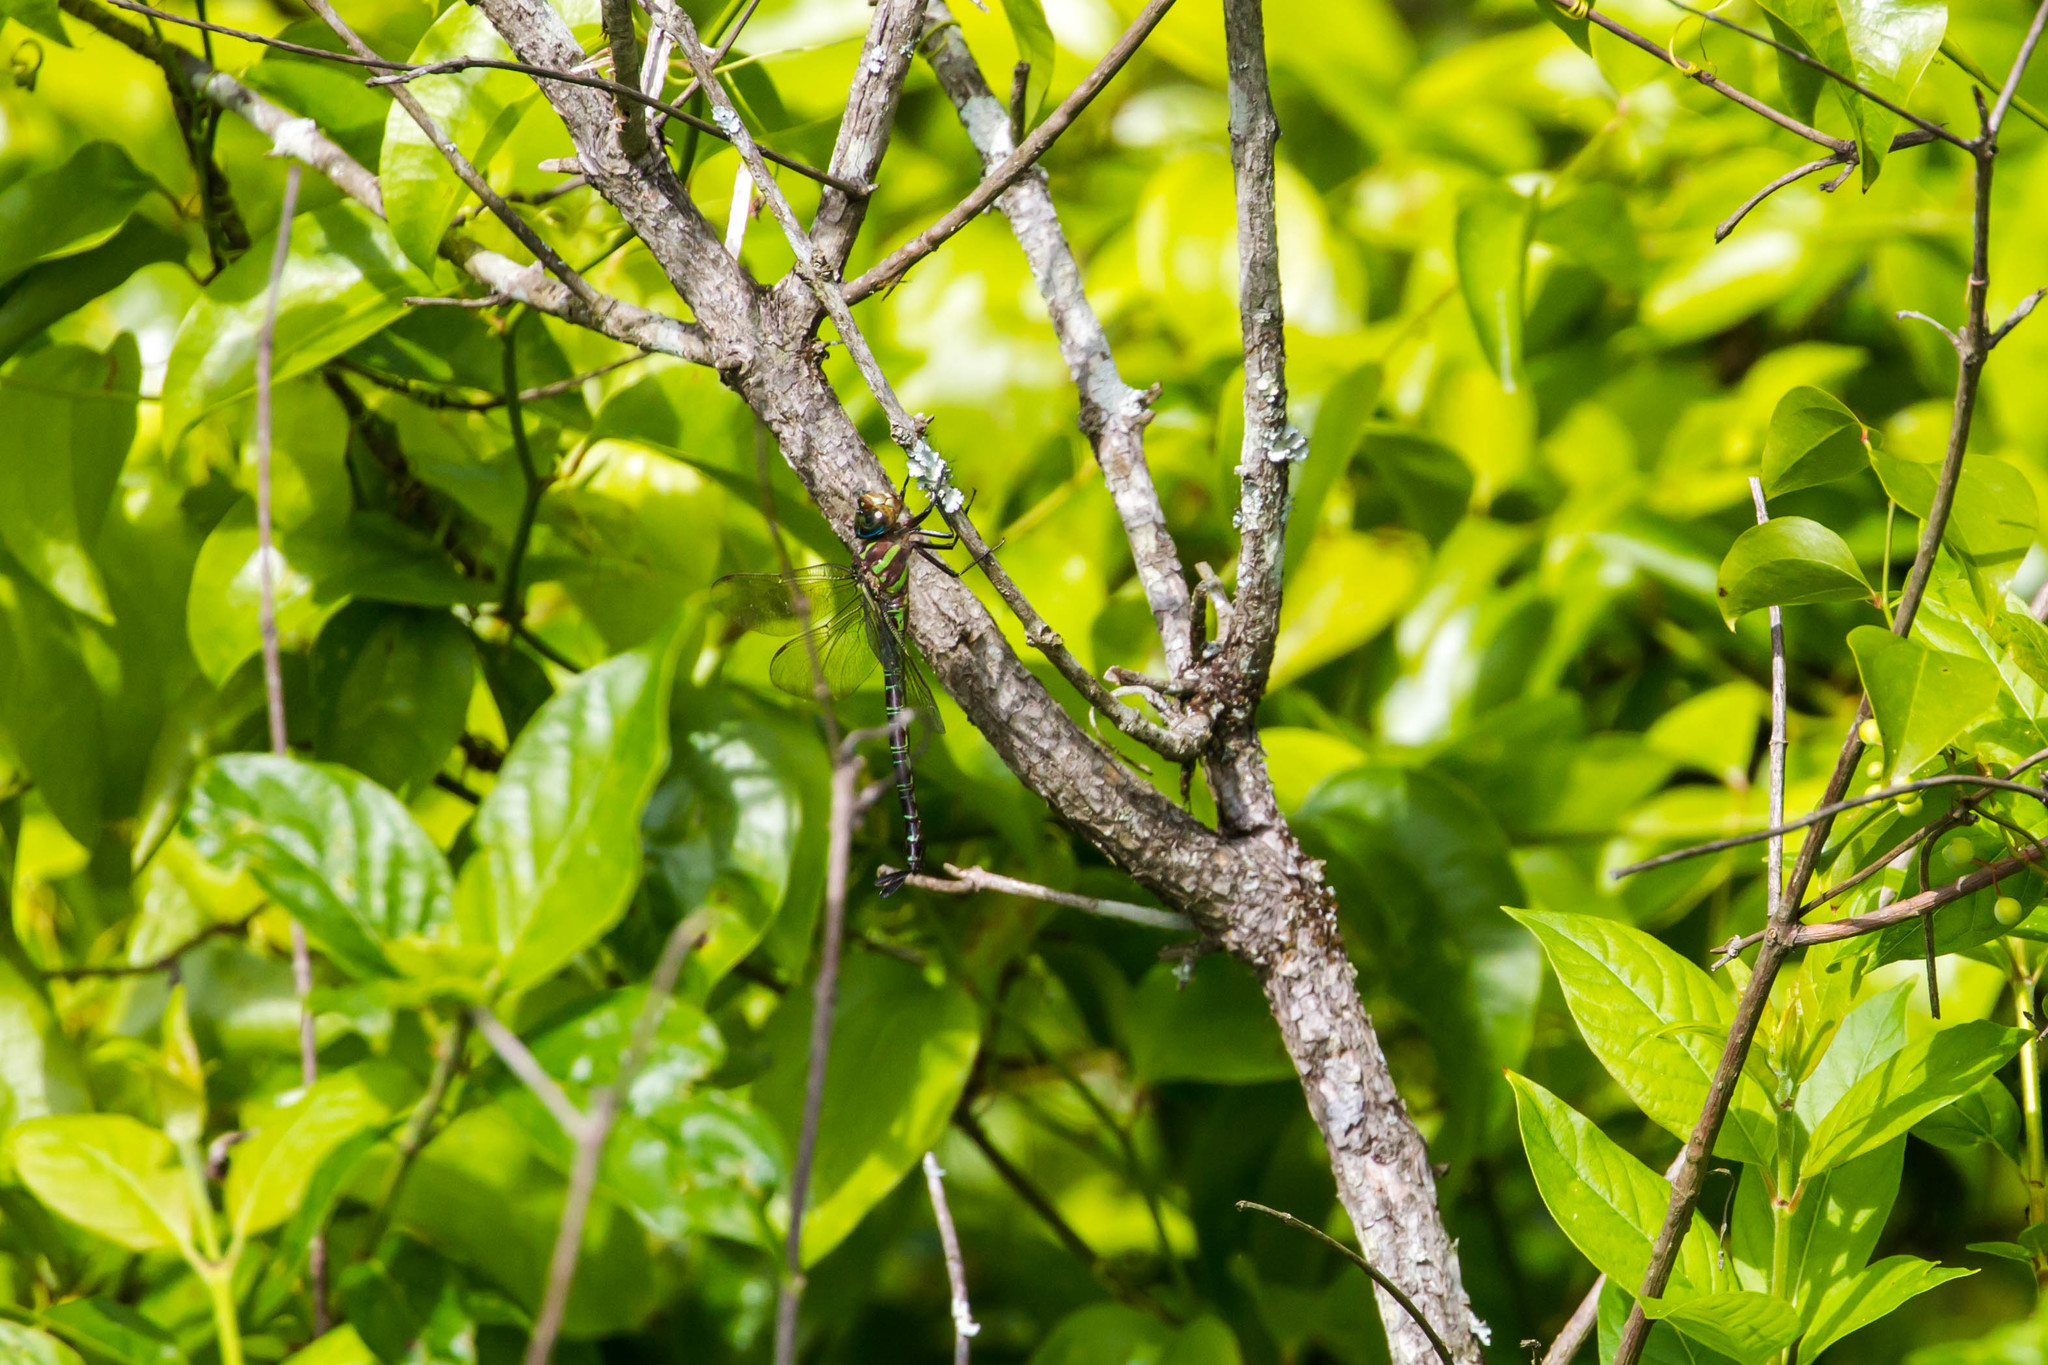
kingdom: Animalia
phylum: Arthropoda
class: Insecta
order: Odonata
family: Aeshnidae
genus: Epiaeschna
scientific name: Epiaeschna heros
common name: Swamp darner
